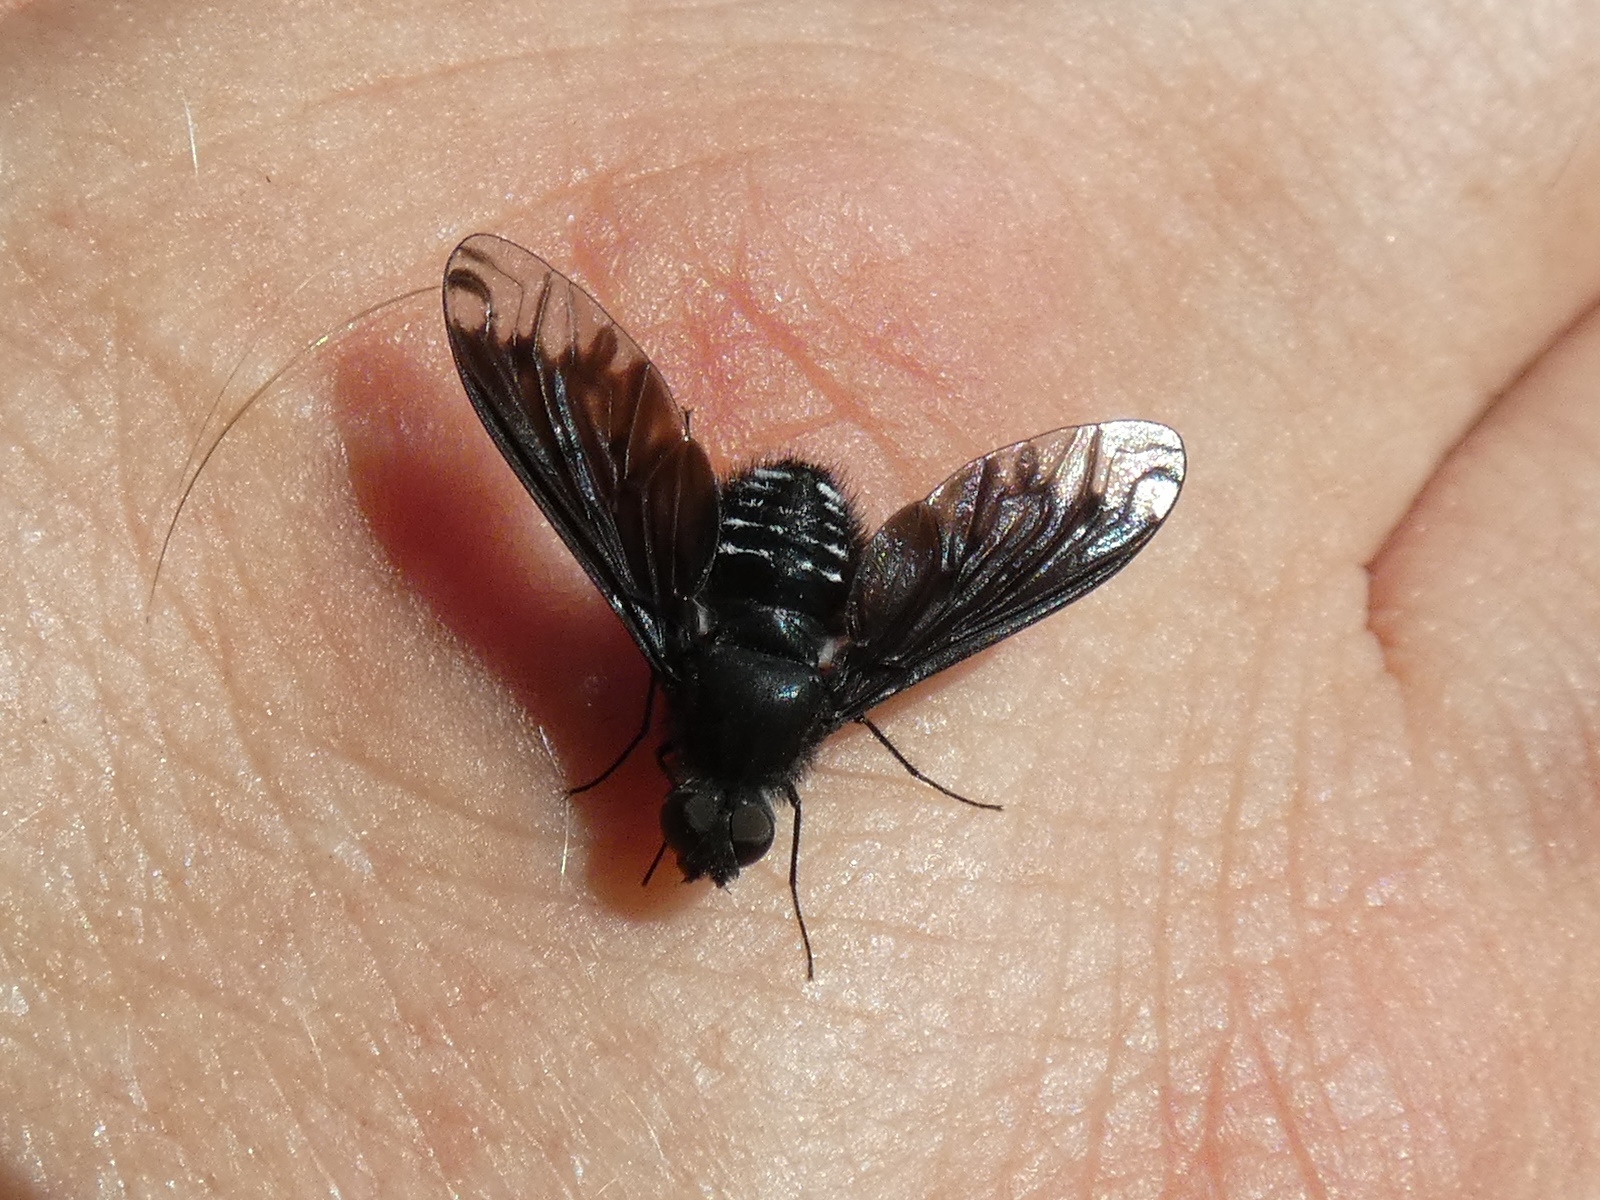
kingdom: Animalia
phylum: Arthropoda
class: Insecta
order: Diptera
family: Bombyliidae
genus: Anthrax
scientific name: Anthrax anthrax
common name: Anthracite bee-fly
